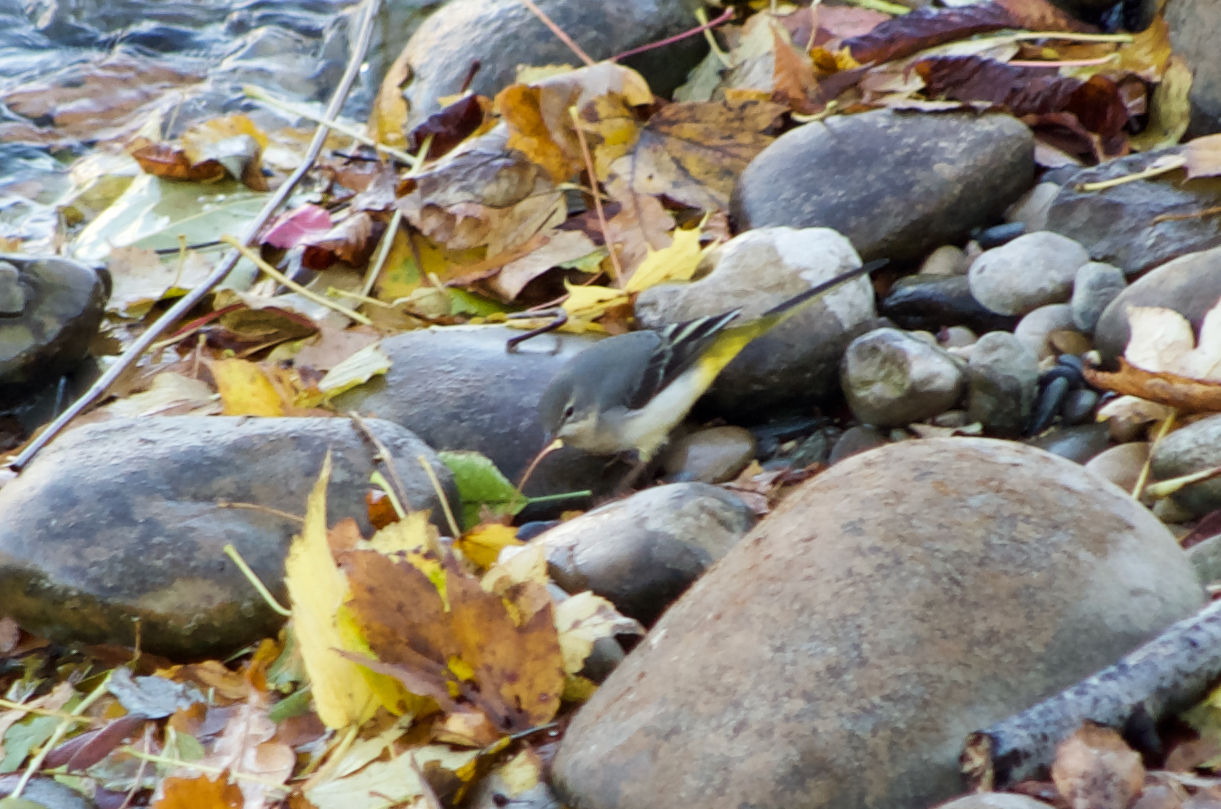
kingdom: Animalia
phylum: Chordata
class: Aves
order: Passeriformes
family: Motacillidae
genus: Motacilla
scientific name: Motacilla cinerea
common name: Grey wagtail
